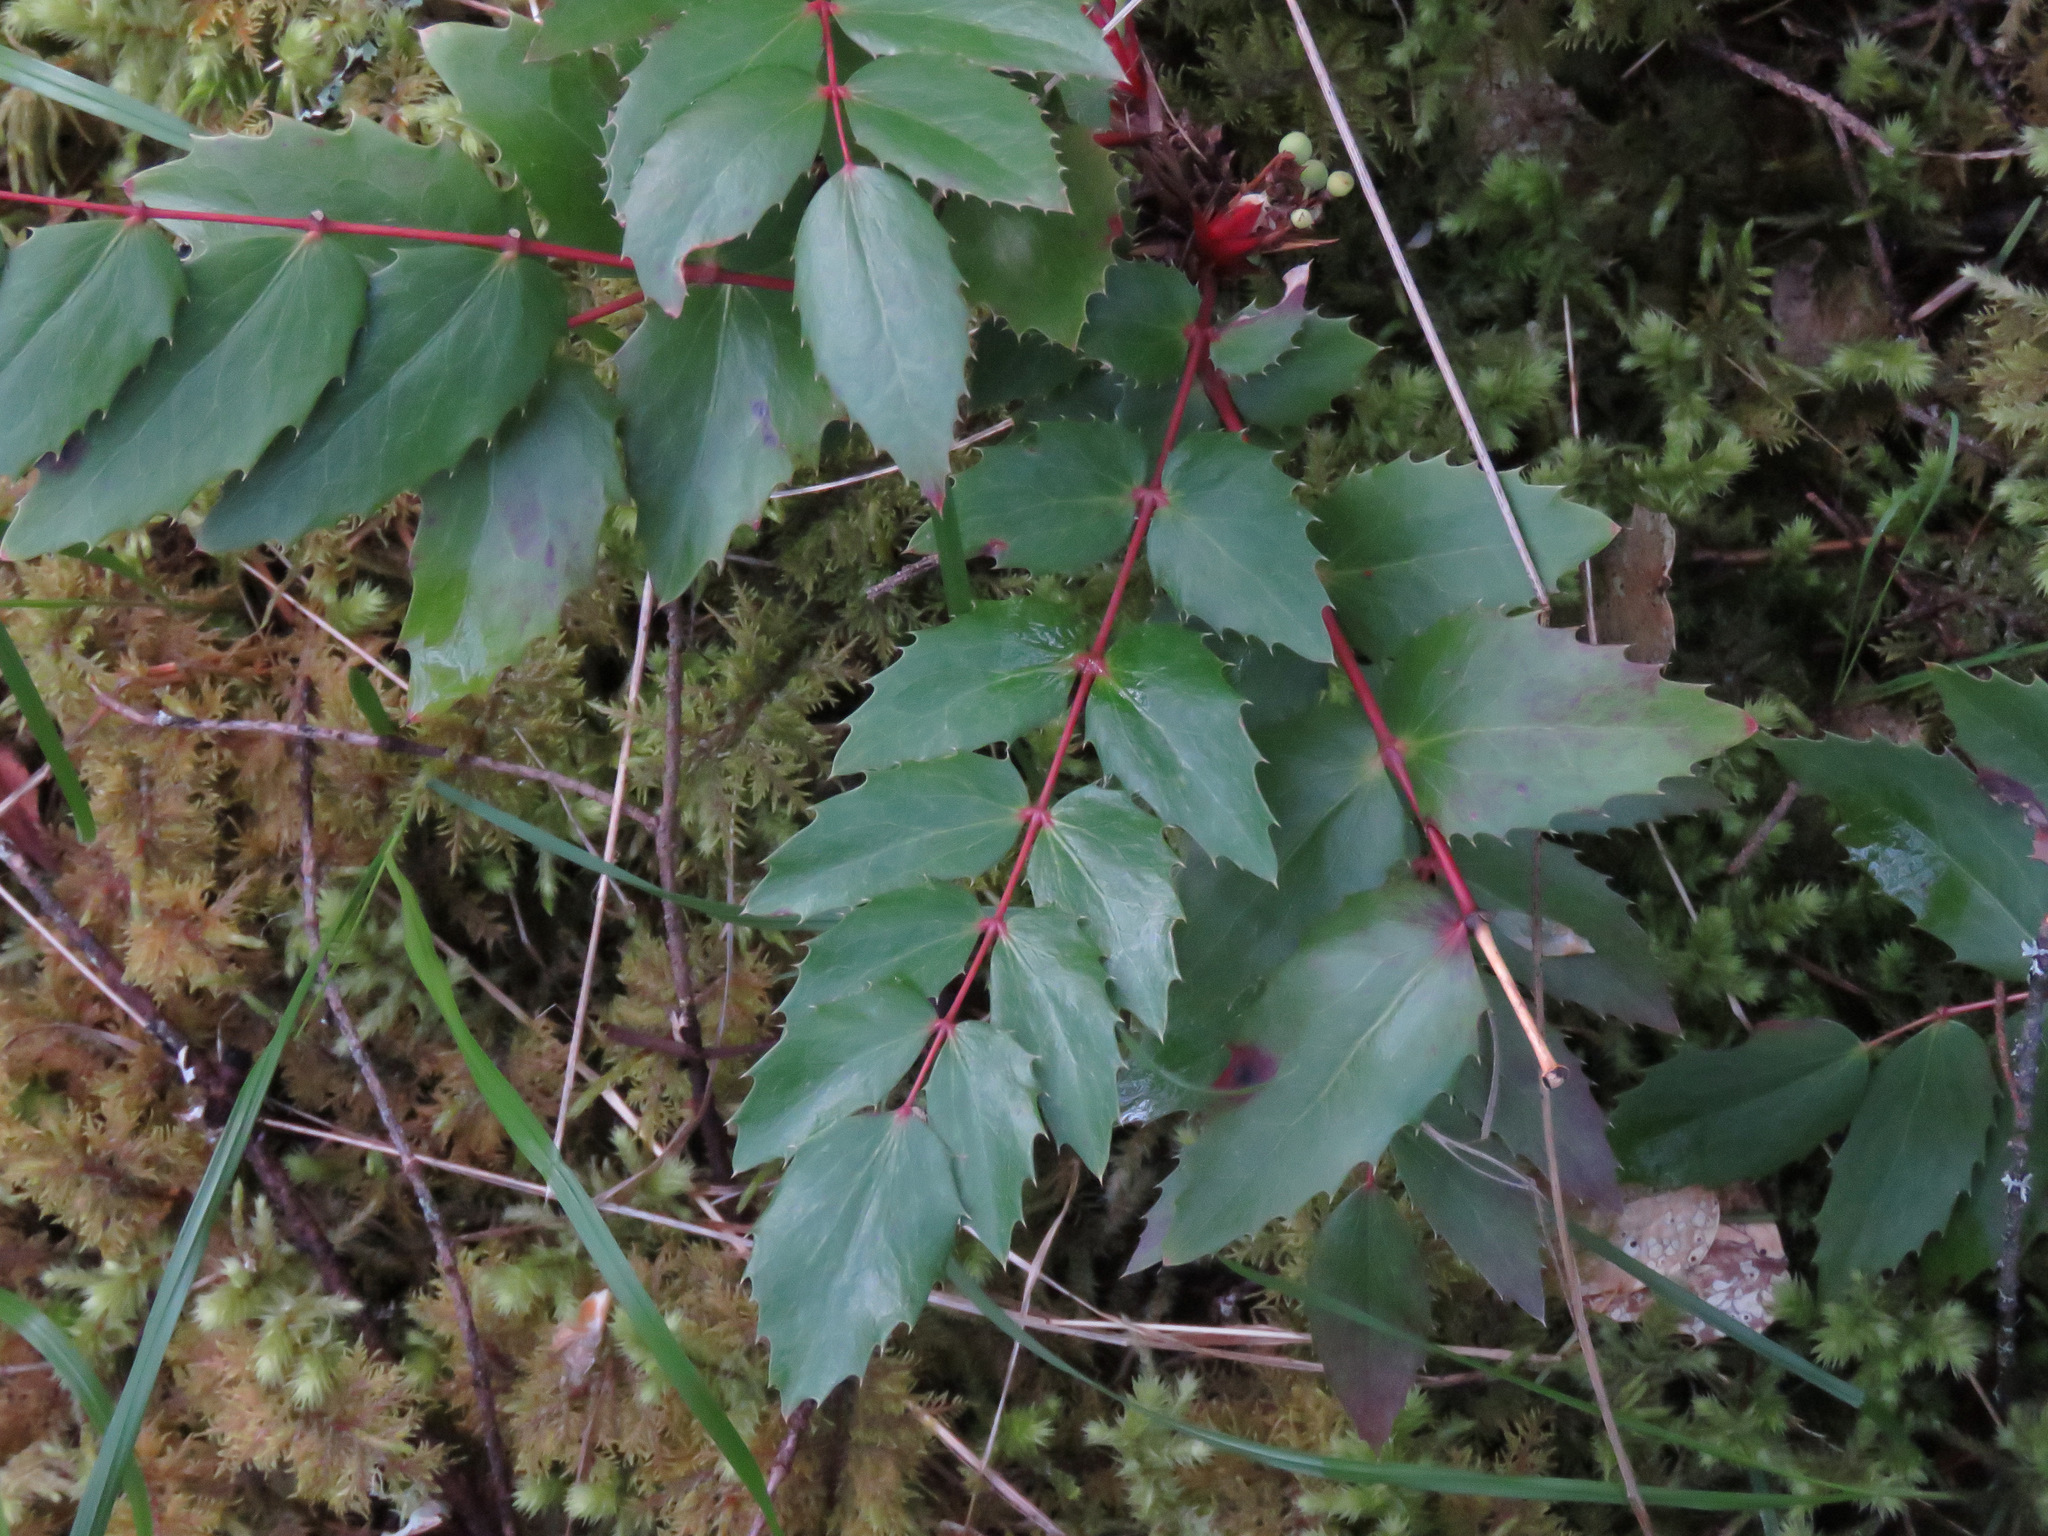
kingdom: Plantae
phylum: Tracheophyta
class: Magnoliopsida
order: Ranunculales
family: Berberidaceae
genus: Mahonia
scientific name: Mahonia nervosa
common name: Cascade oregon-grape
